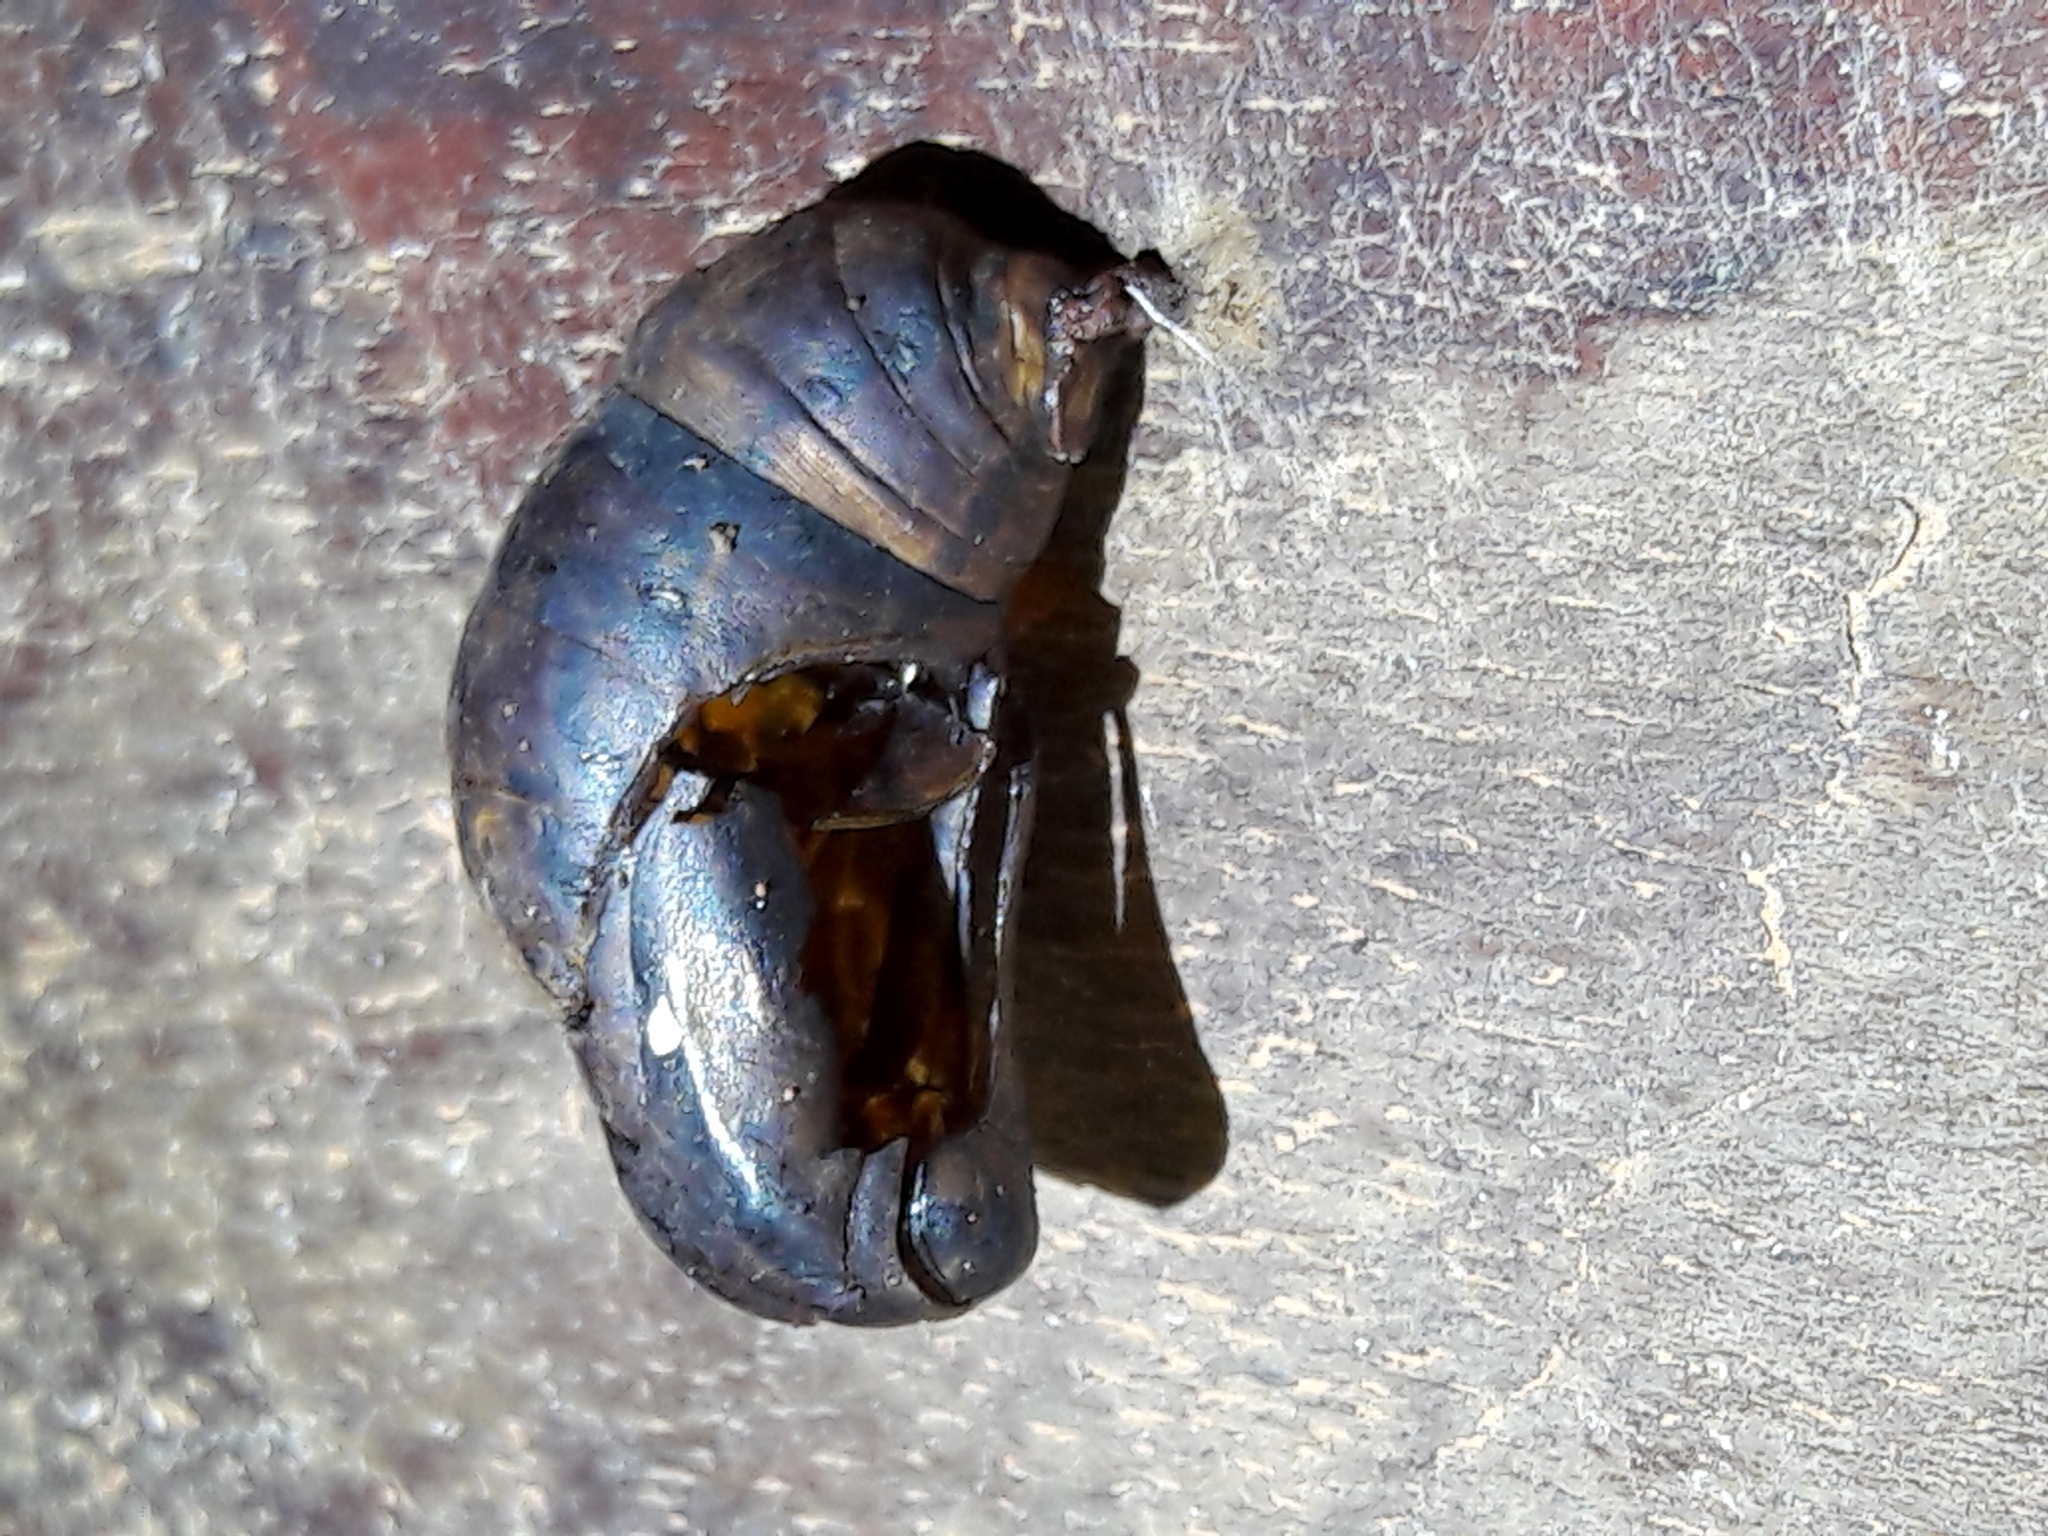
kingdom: Animalia
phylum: Arthropoda
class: Insecta
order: Lepidoptera
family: Nymphalidae
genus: Brassolis
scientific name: Brassolis sophorae
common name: Coconut caterpillar
